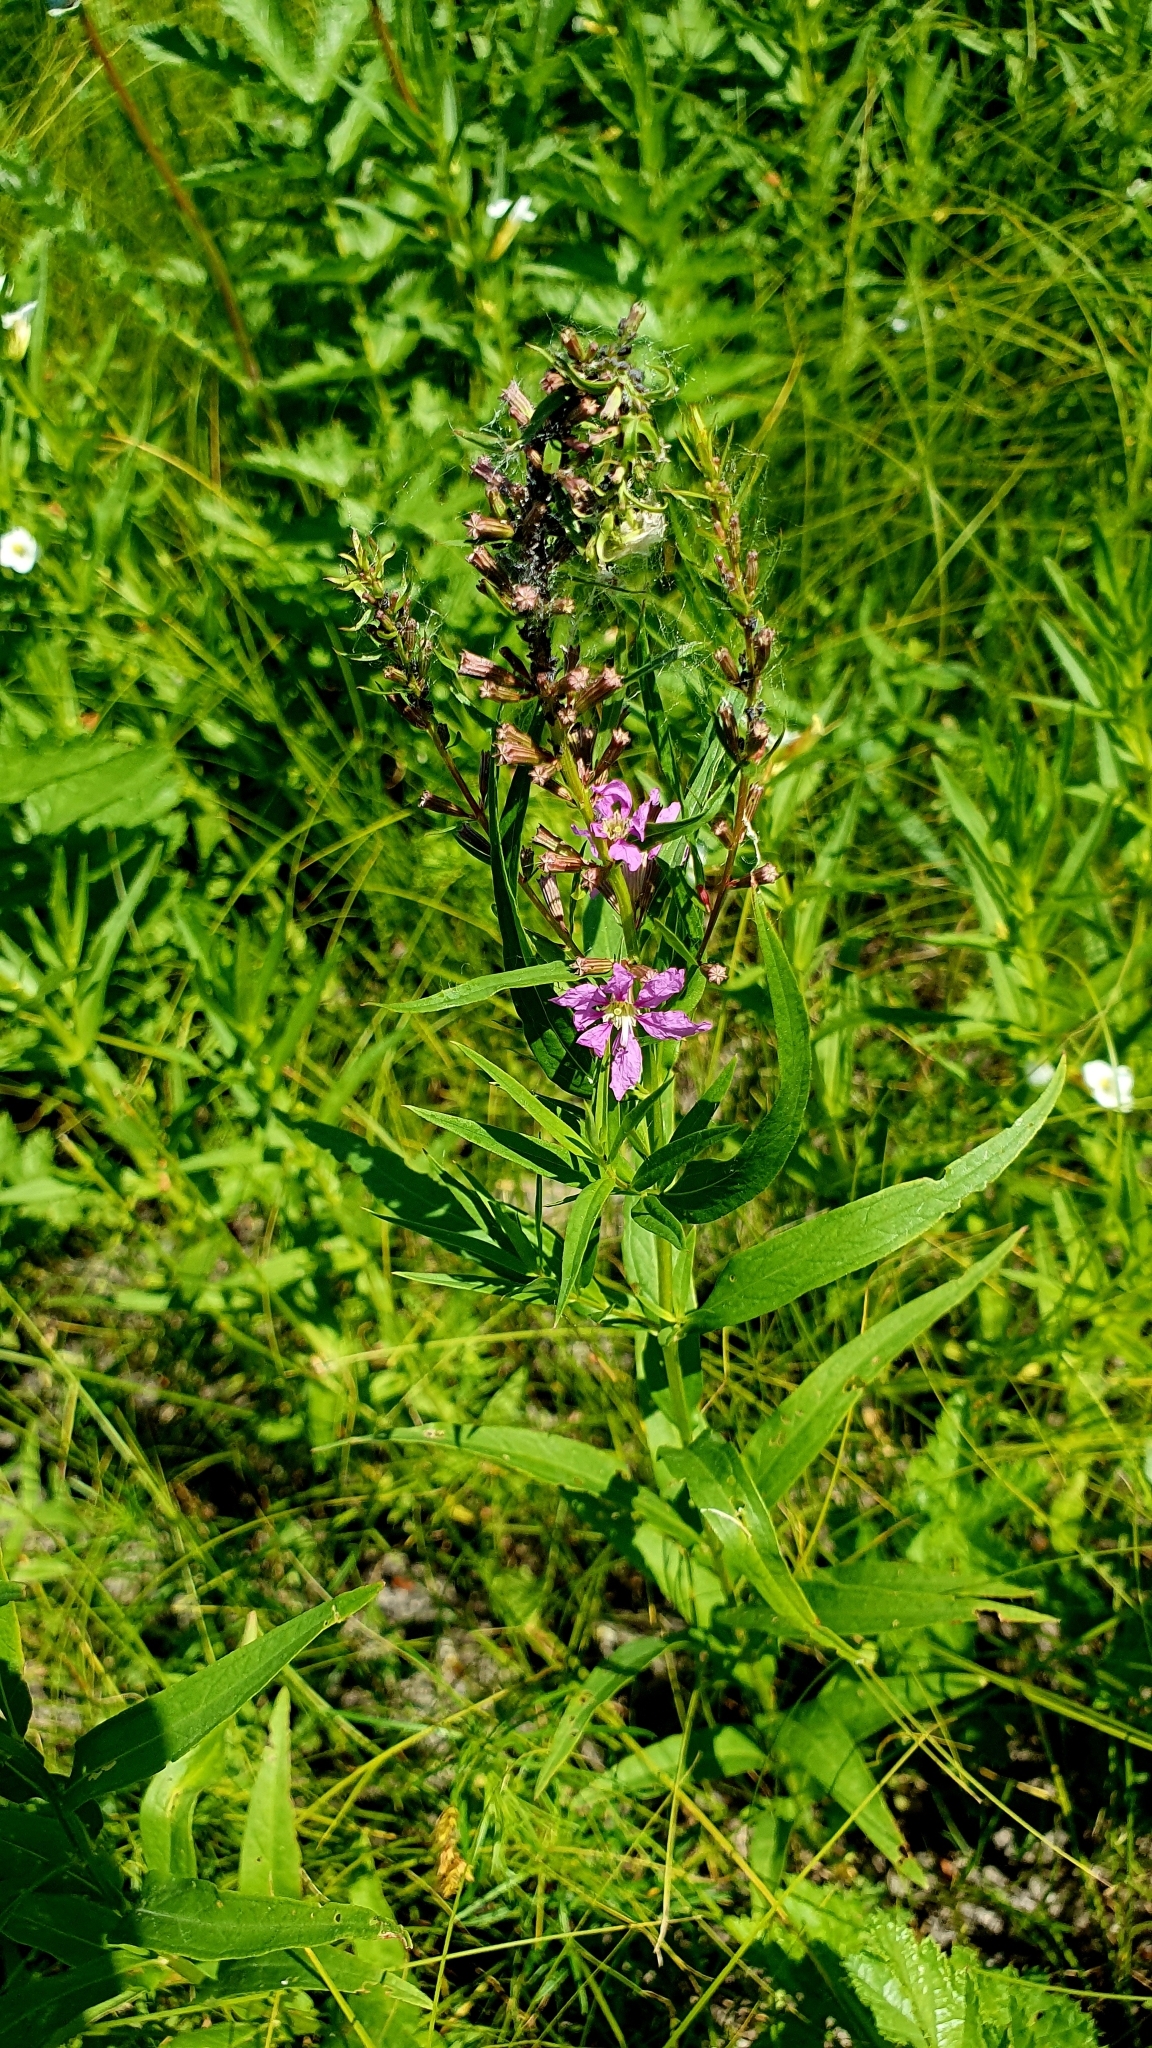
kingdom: Plantae
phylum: Tracheophyta
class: Magnoliopsida
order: Myrtales
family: Lythraceae
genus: Lythrum
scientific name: Lythrum salicaria
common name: Purple loosestrife
